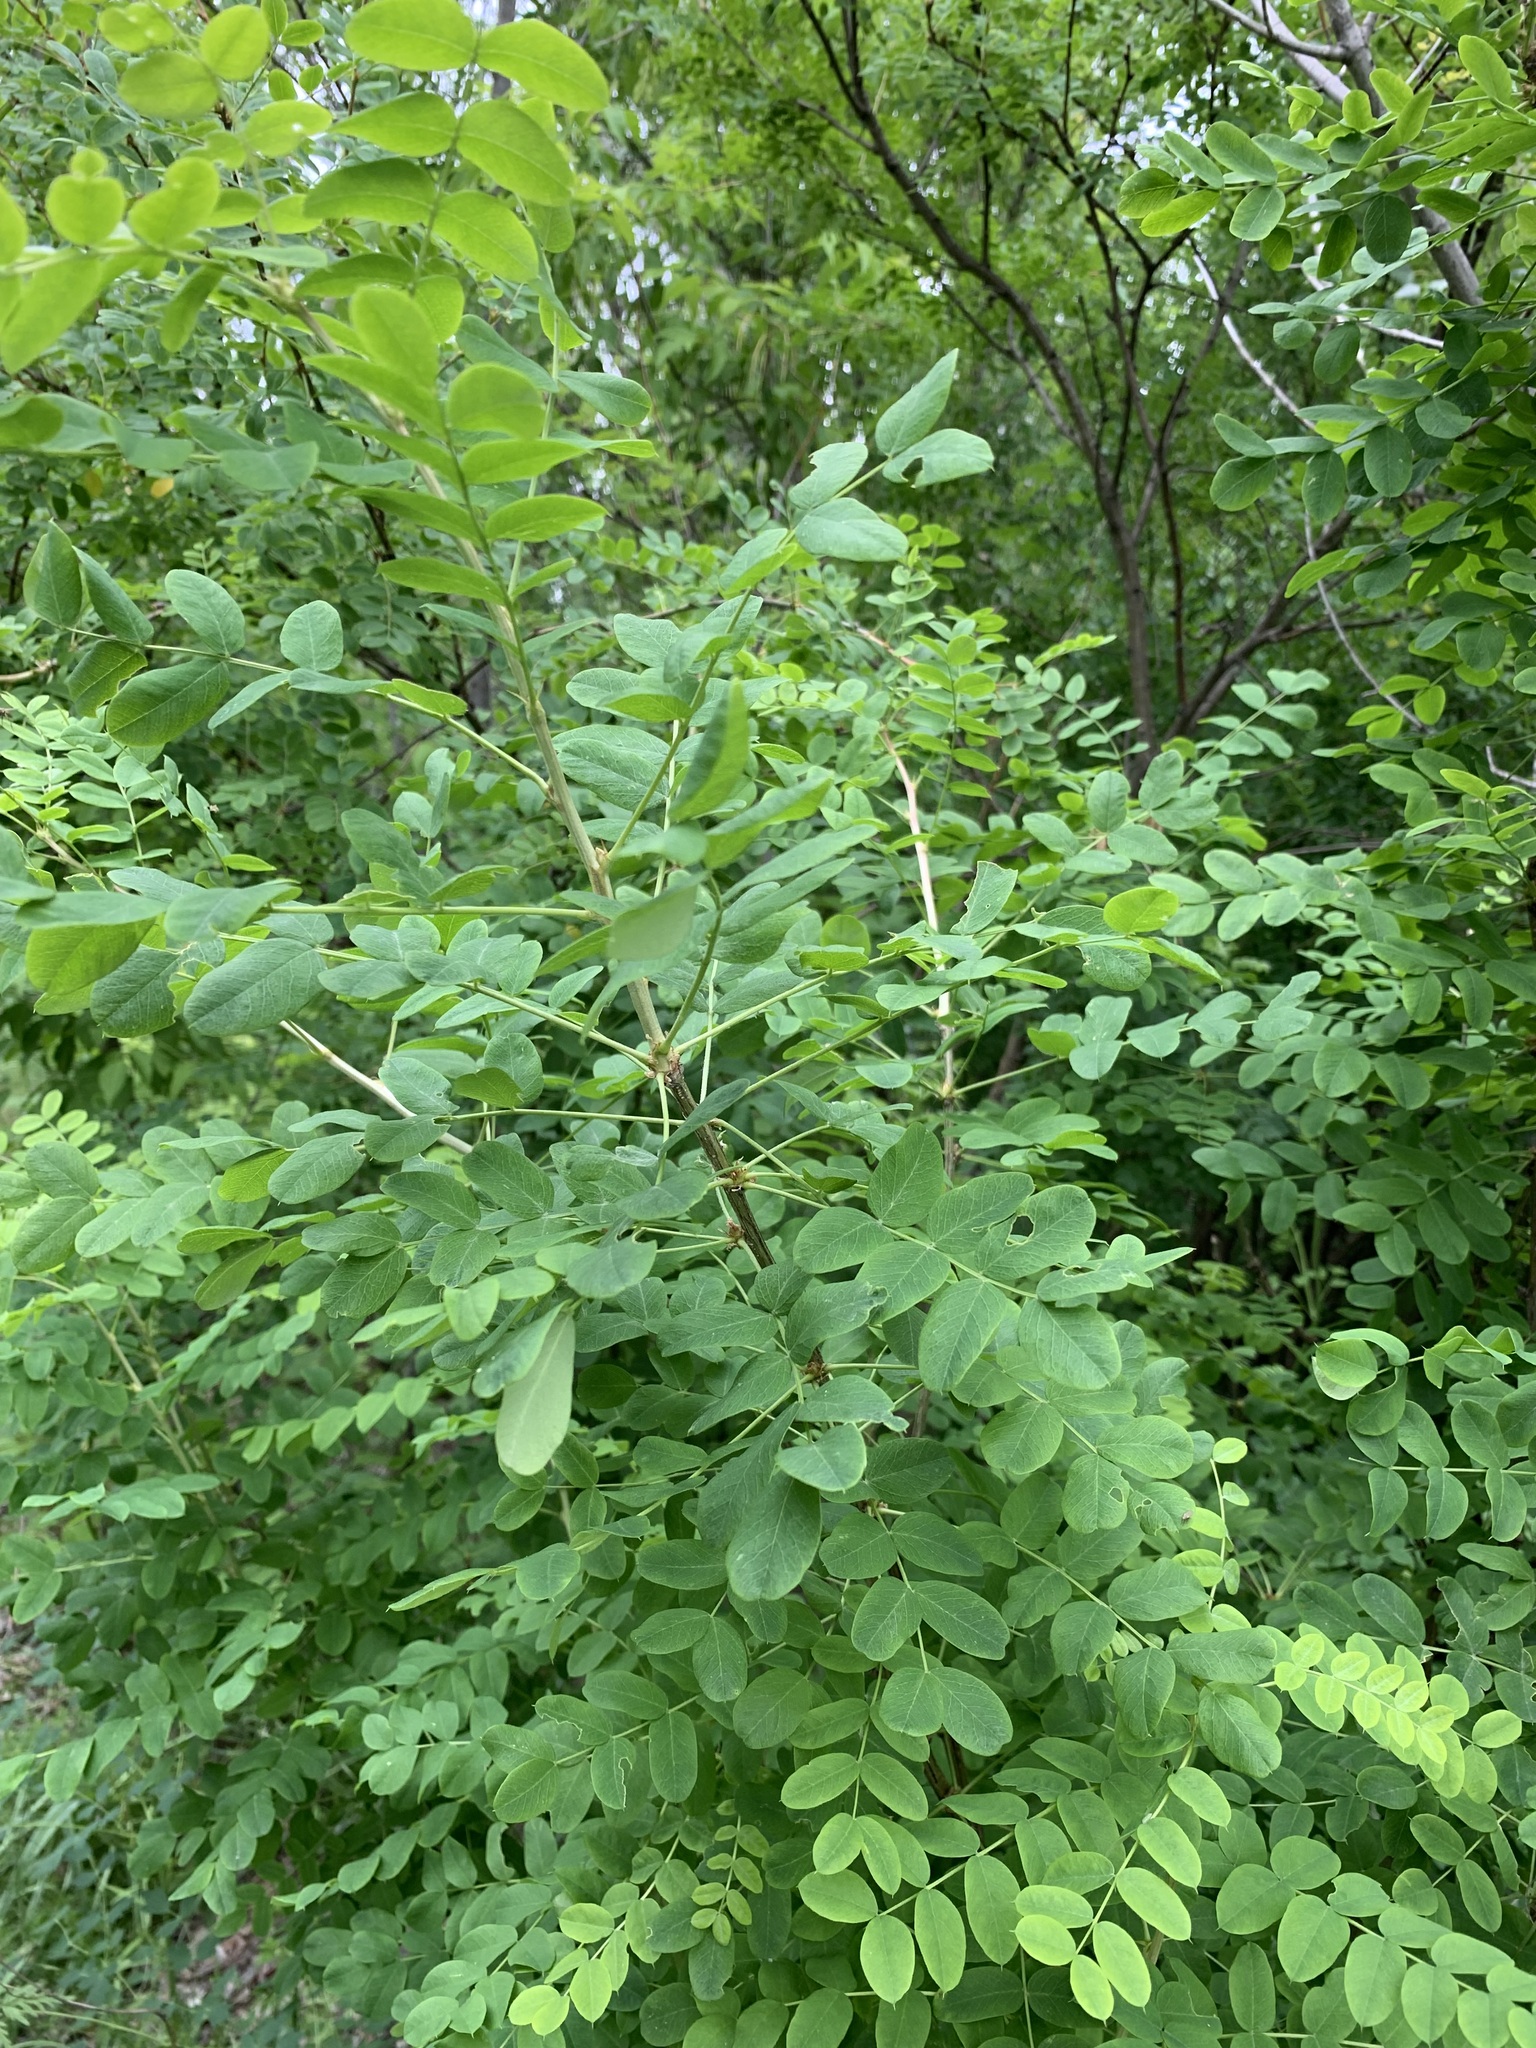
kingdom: Plantae
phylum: Tracheophyta
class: Magnoliopsida
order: Fabales
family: Fabaceae
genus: Caragana
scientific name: Caragana arborescens
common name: Siberian peashrub
